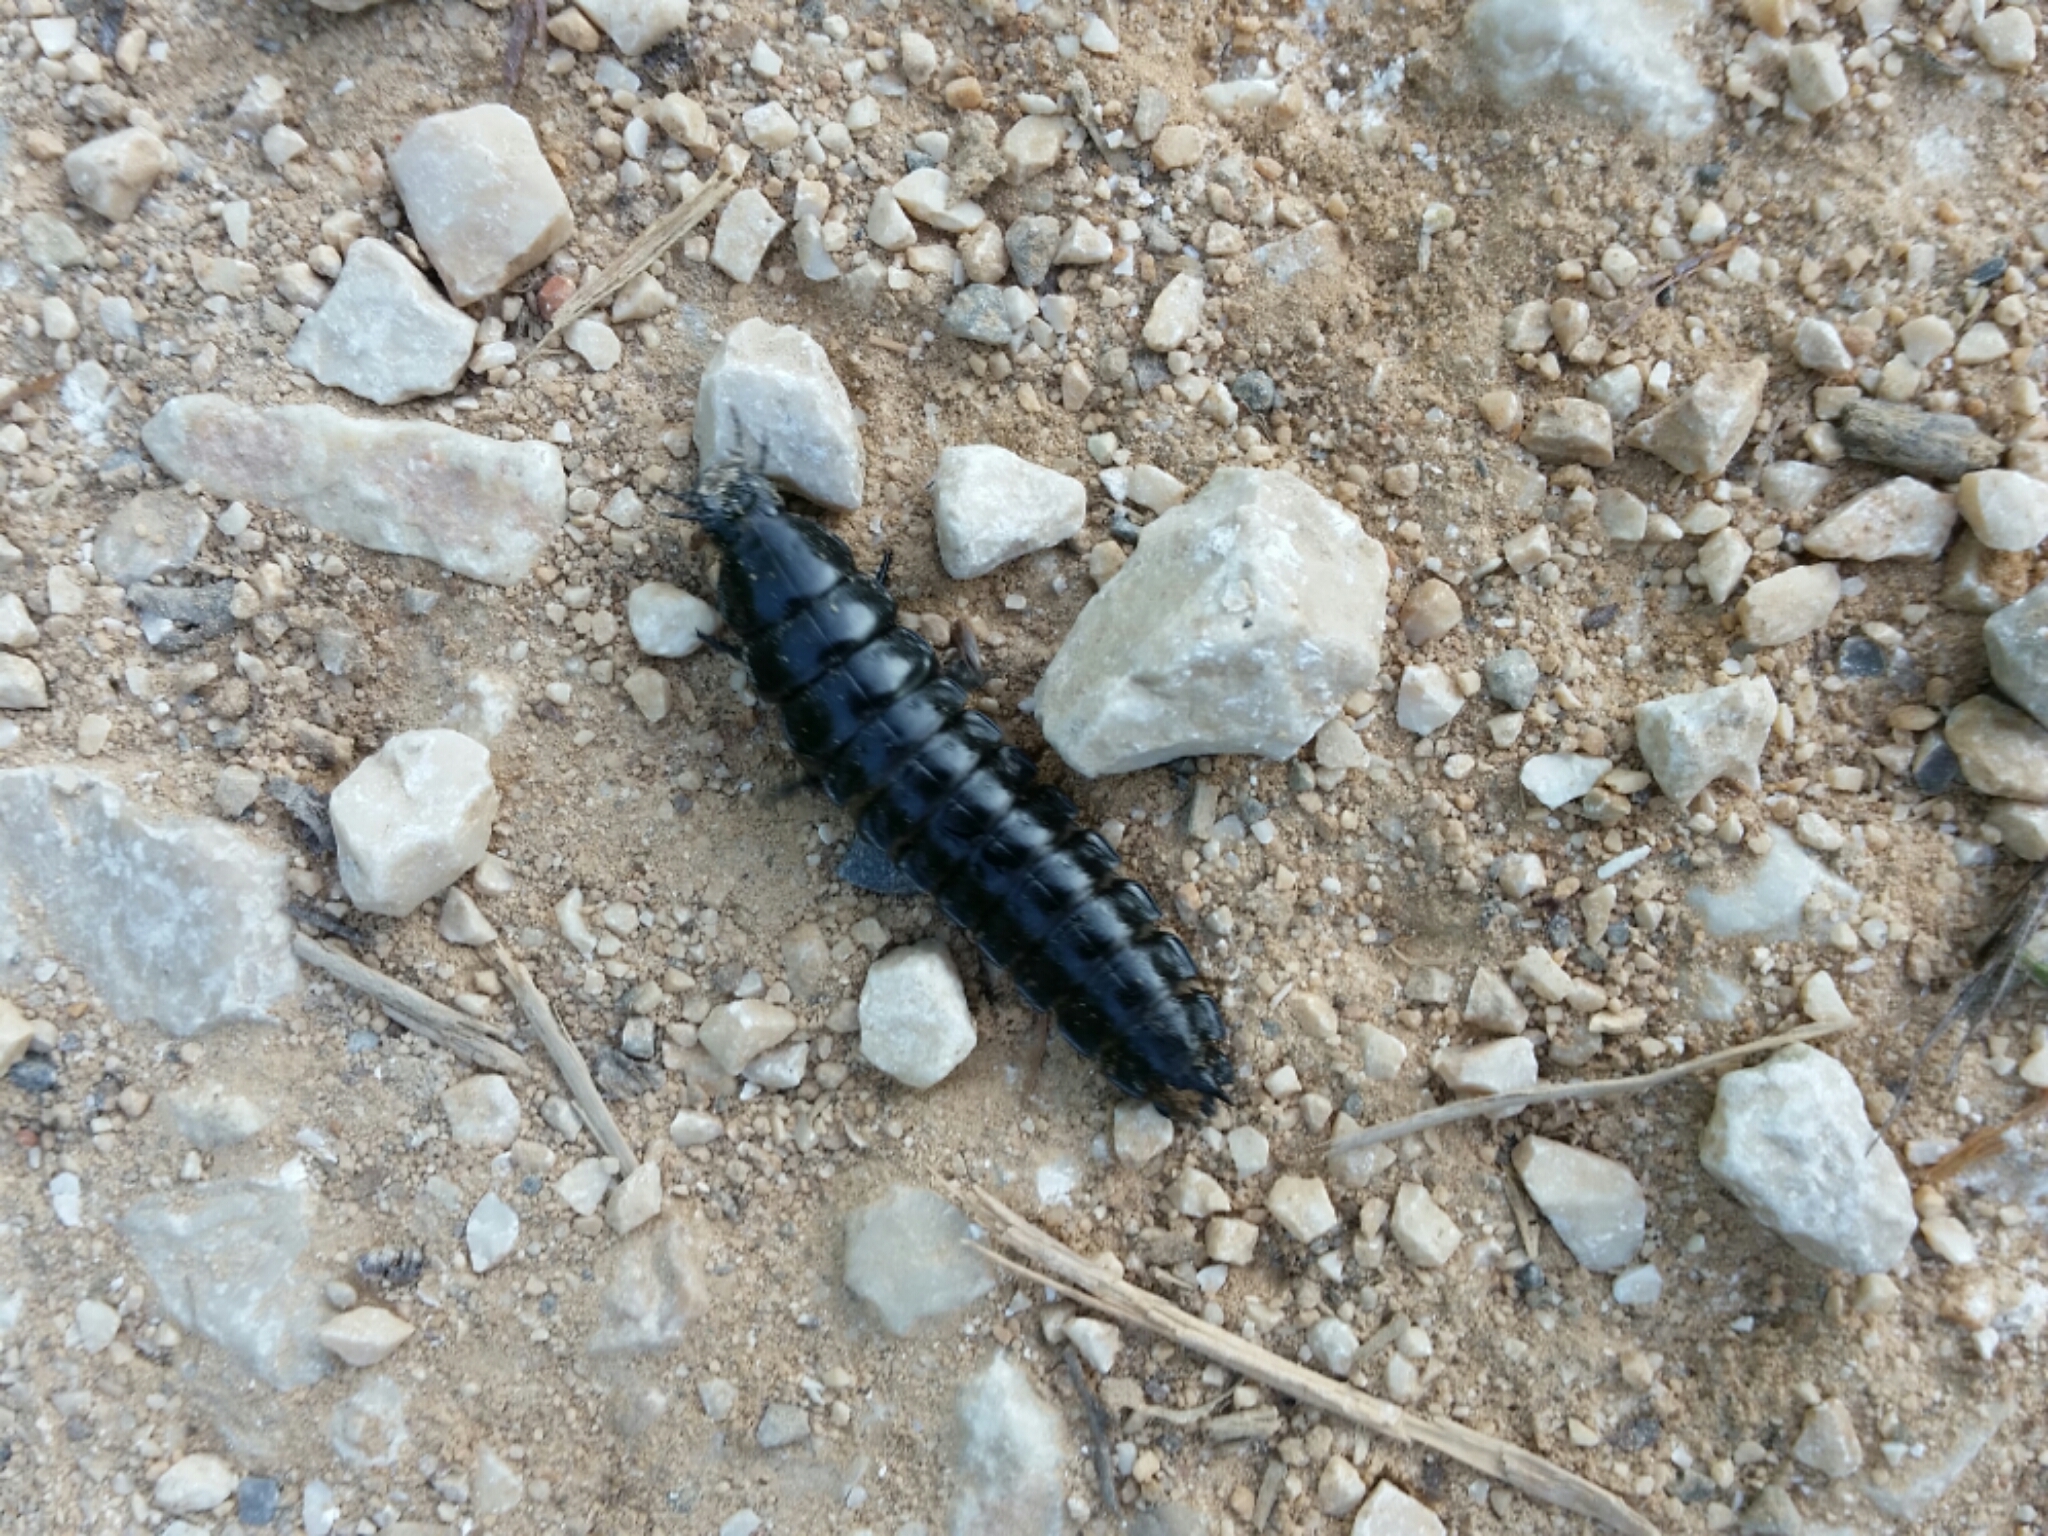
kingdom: Animalia
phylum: Arthropoda
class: Insecta
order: Coleoptera
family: Carabidae
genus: Carabus
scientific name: Carabus
